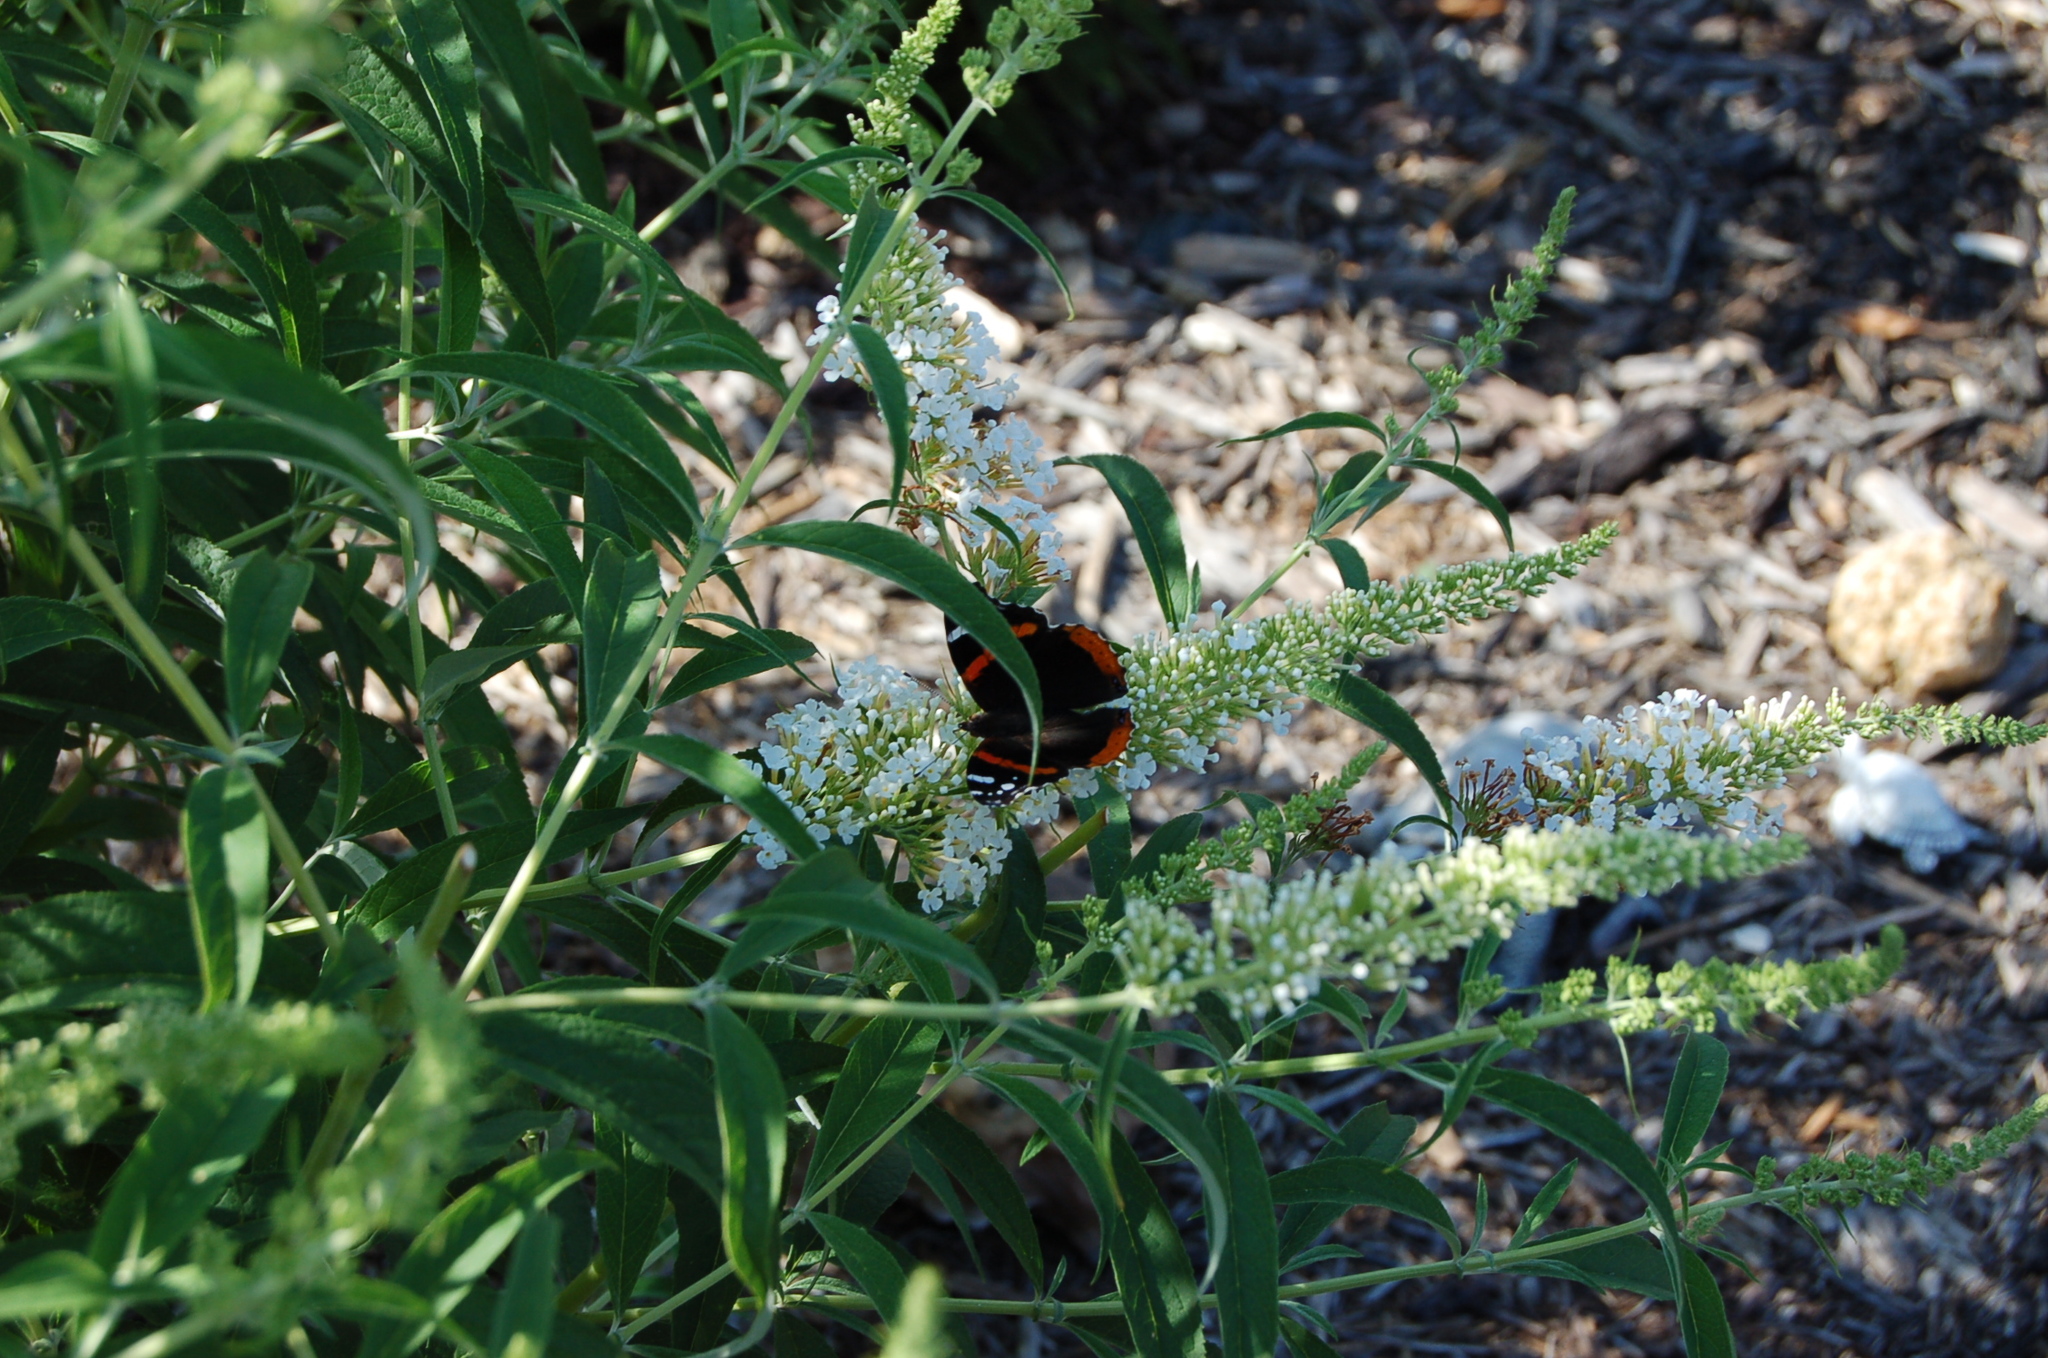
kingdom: Animalia
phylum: Arthropoda
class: Insecta
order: Lepidoptera
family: Nymphalidae
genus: Vanessa
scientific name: Vanessa atalanta
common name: Red admiral
